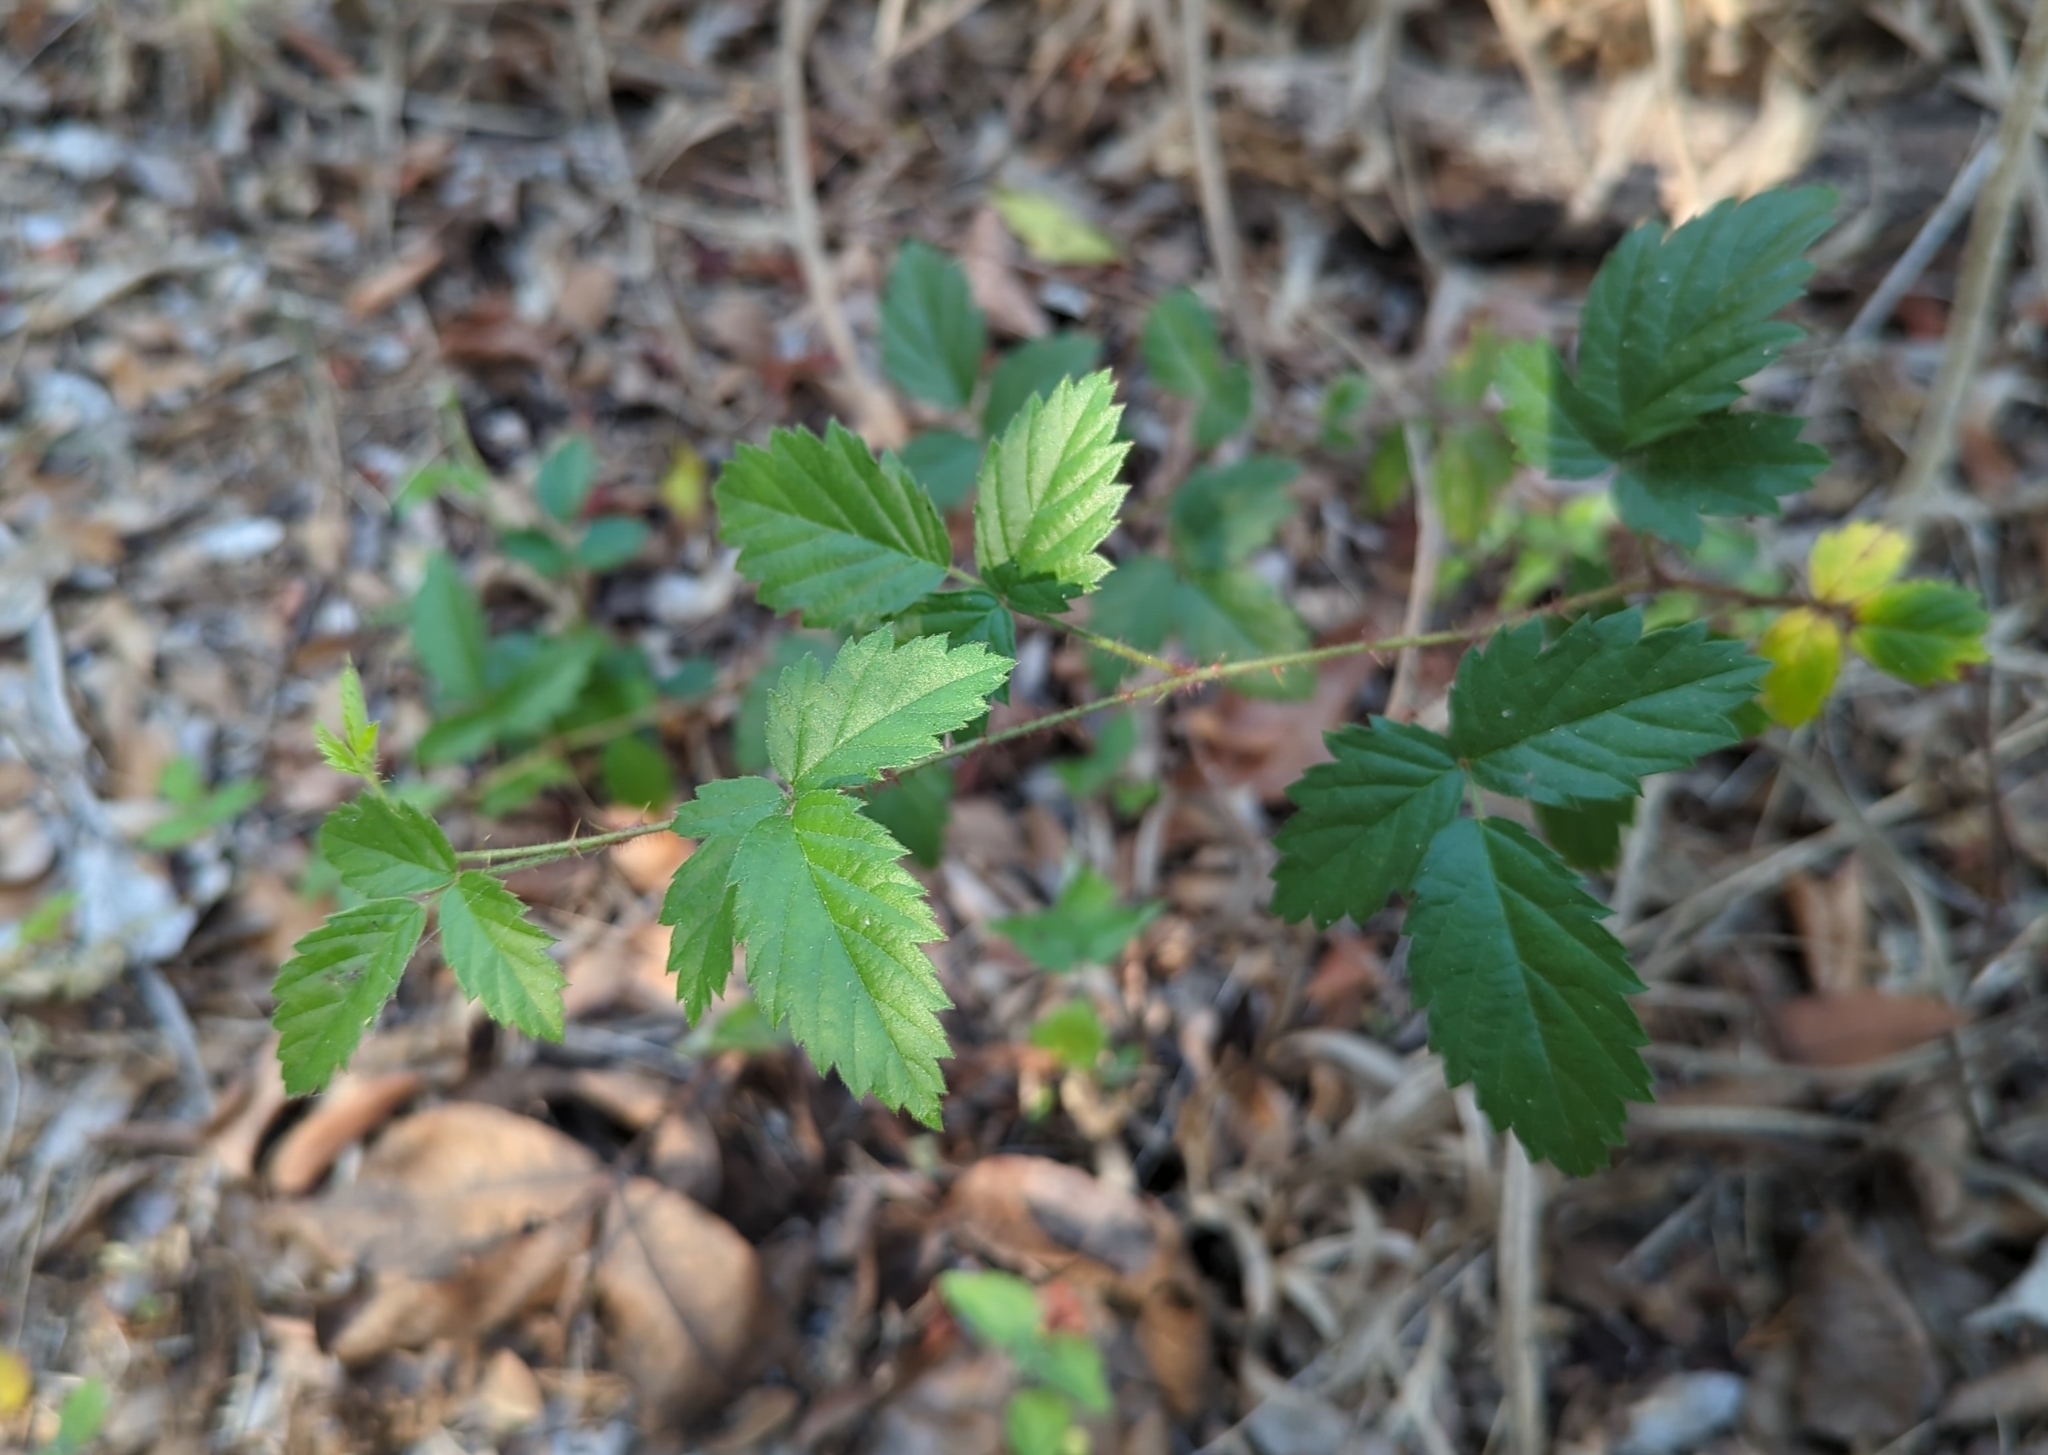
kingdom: Plantae
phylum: Tracheophyta
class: Magnoliopsida
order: Rosales
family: Rosaceae
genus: Rubus
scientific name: Rubus trivialis
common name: Southern dewberry
